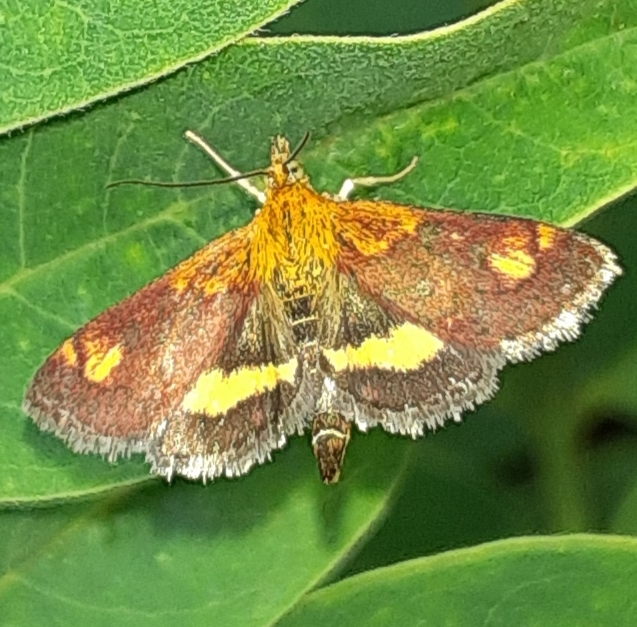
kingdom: Animalia
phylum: Arthropoda
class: Insecta
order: Lepidoptera
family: Crambidae
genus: Pyrausta
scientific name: Pyrausta orphisalis
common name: Orange mint moth
